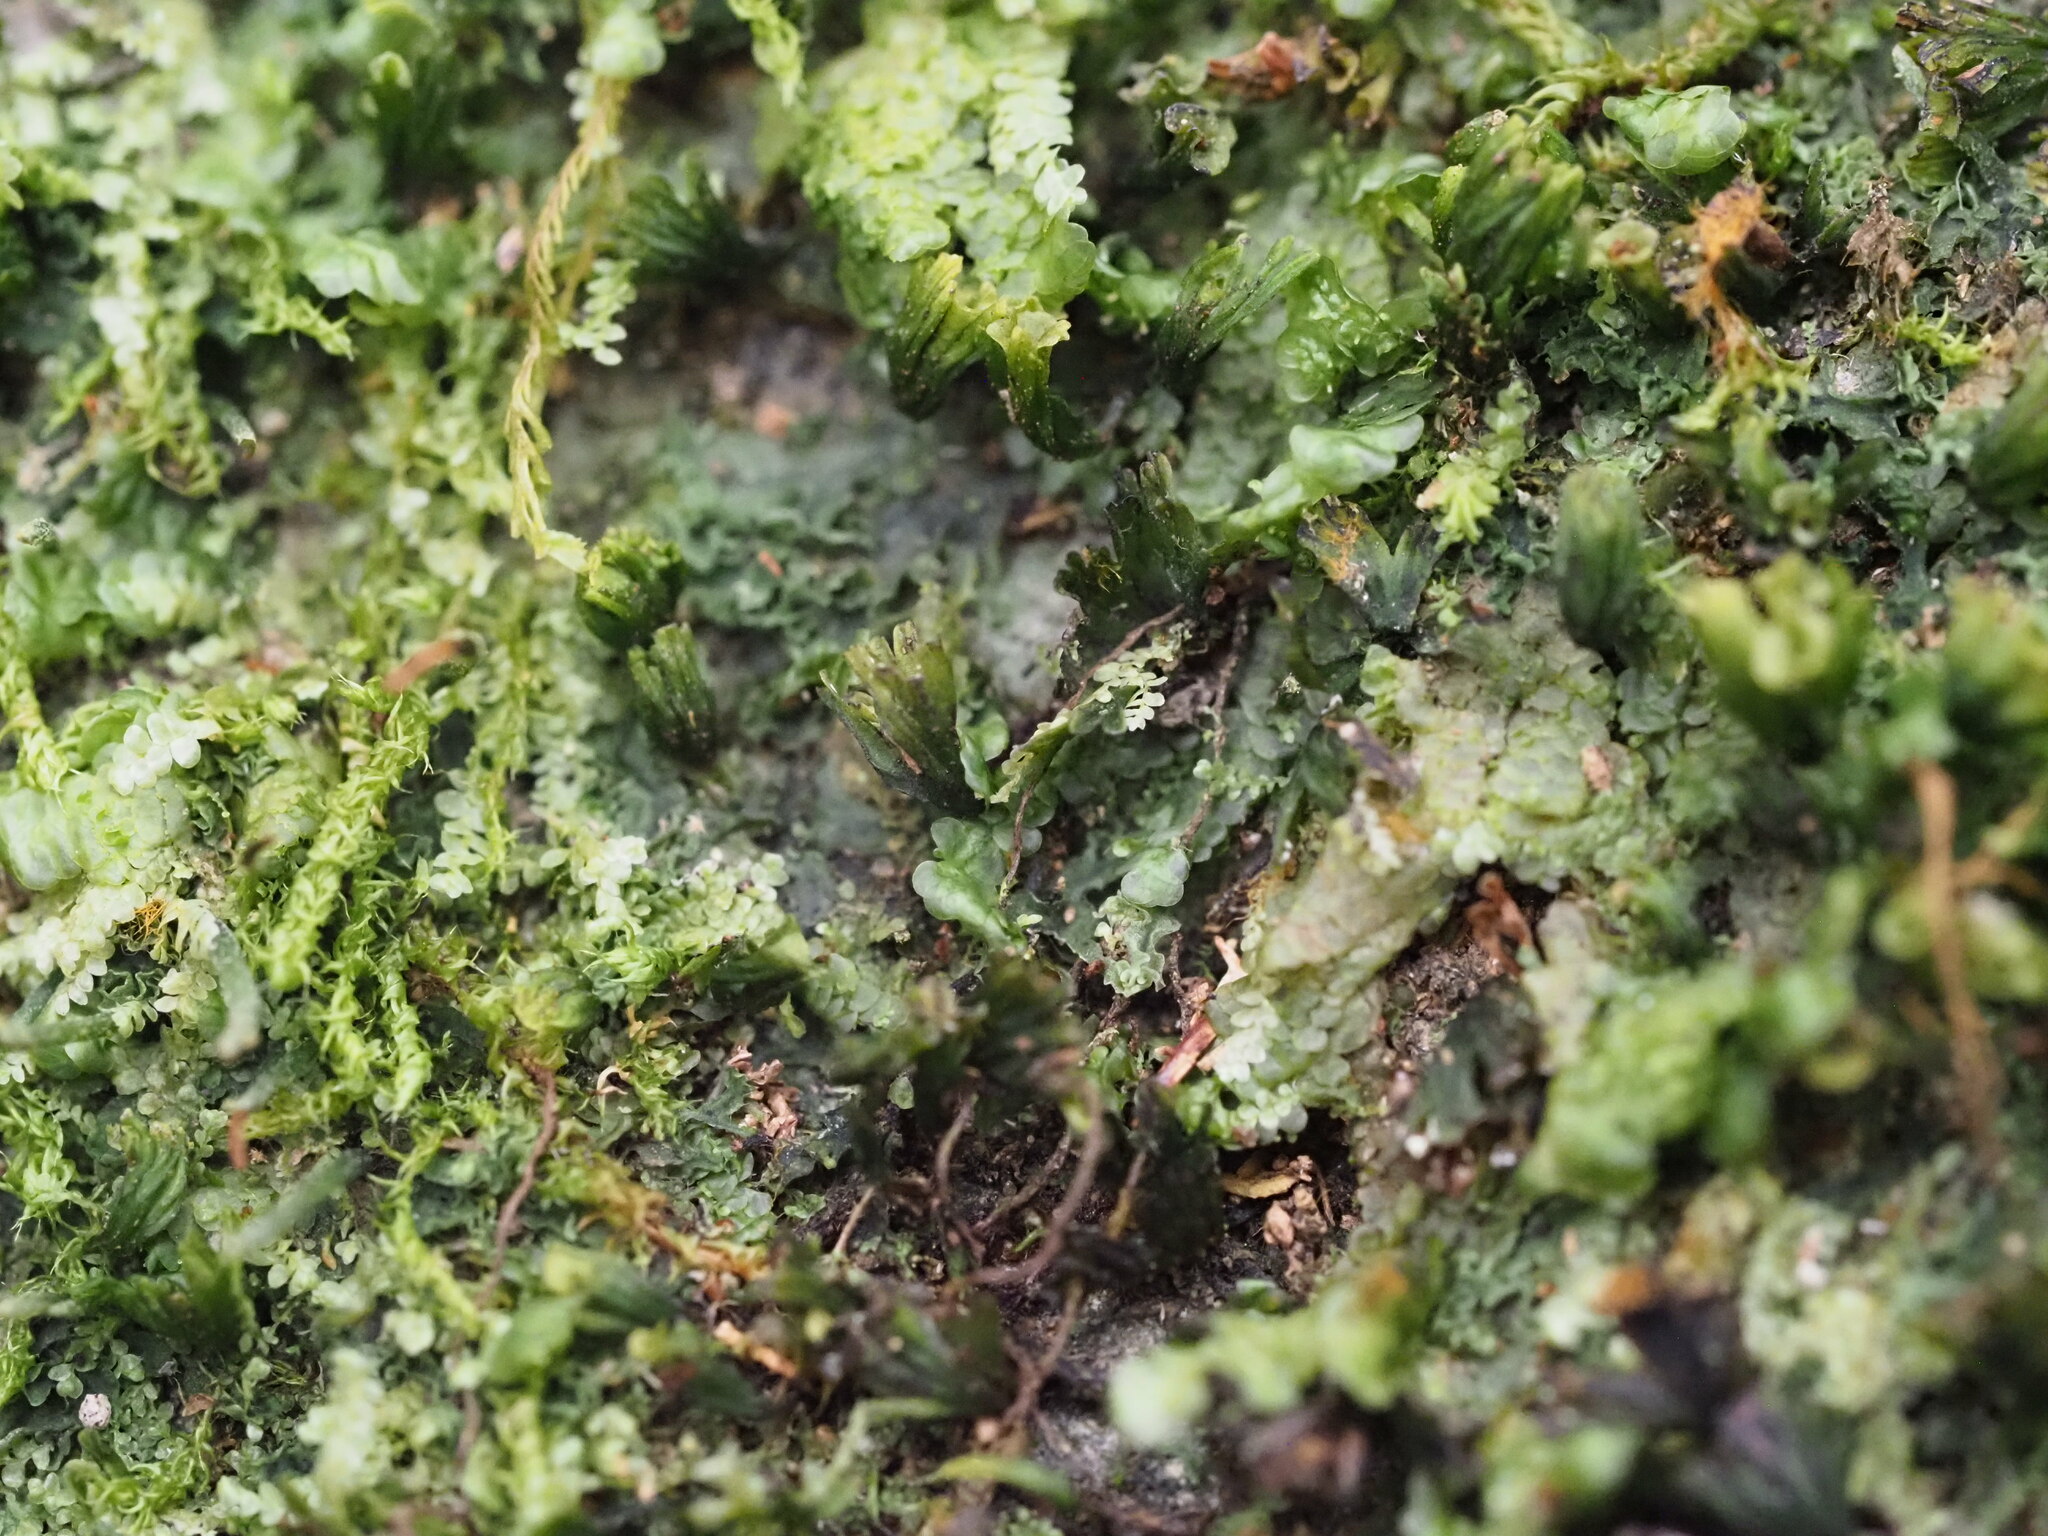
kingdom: Plantae
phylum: Tracheophyta
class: Polypodiopsida
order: Hymenophyllales
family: Hymenophyllaceae
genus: Crepidomanes
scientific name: Crepidomanes parvulum
